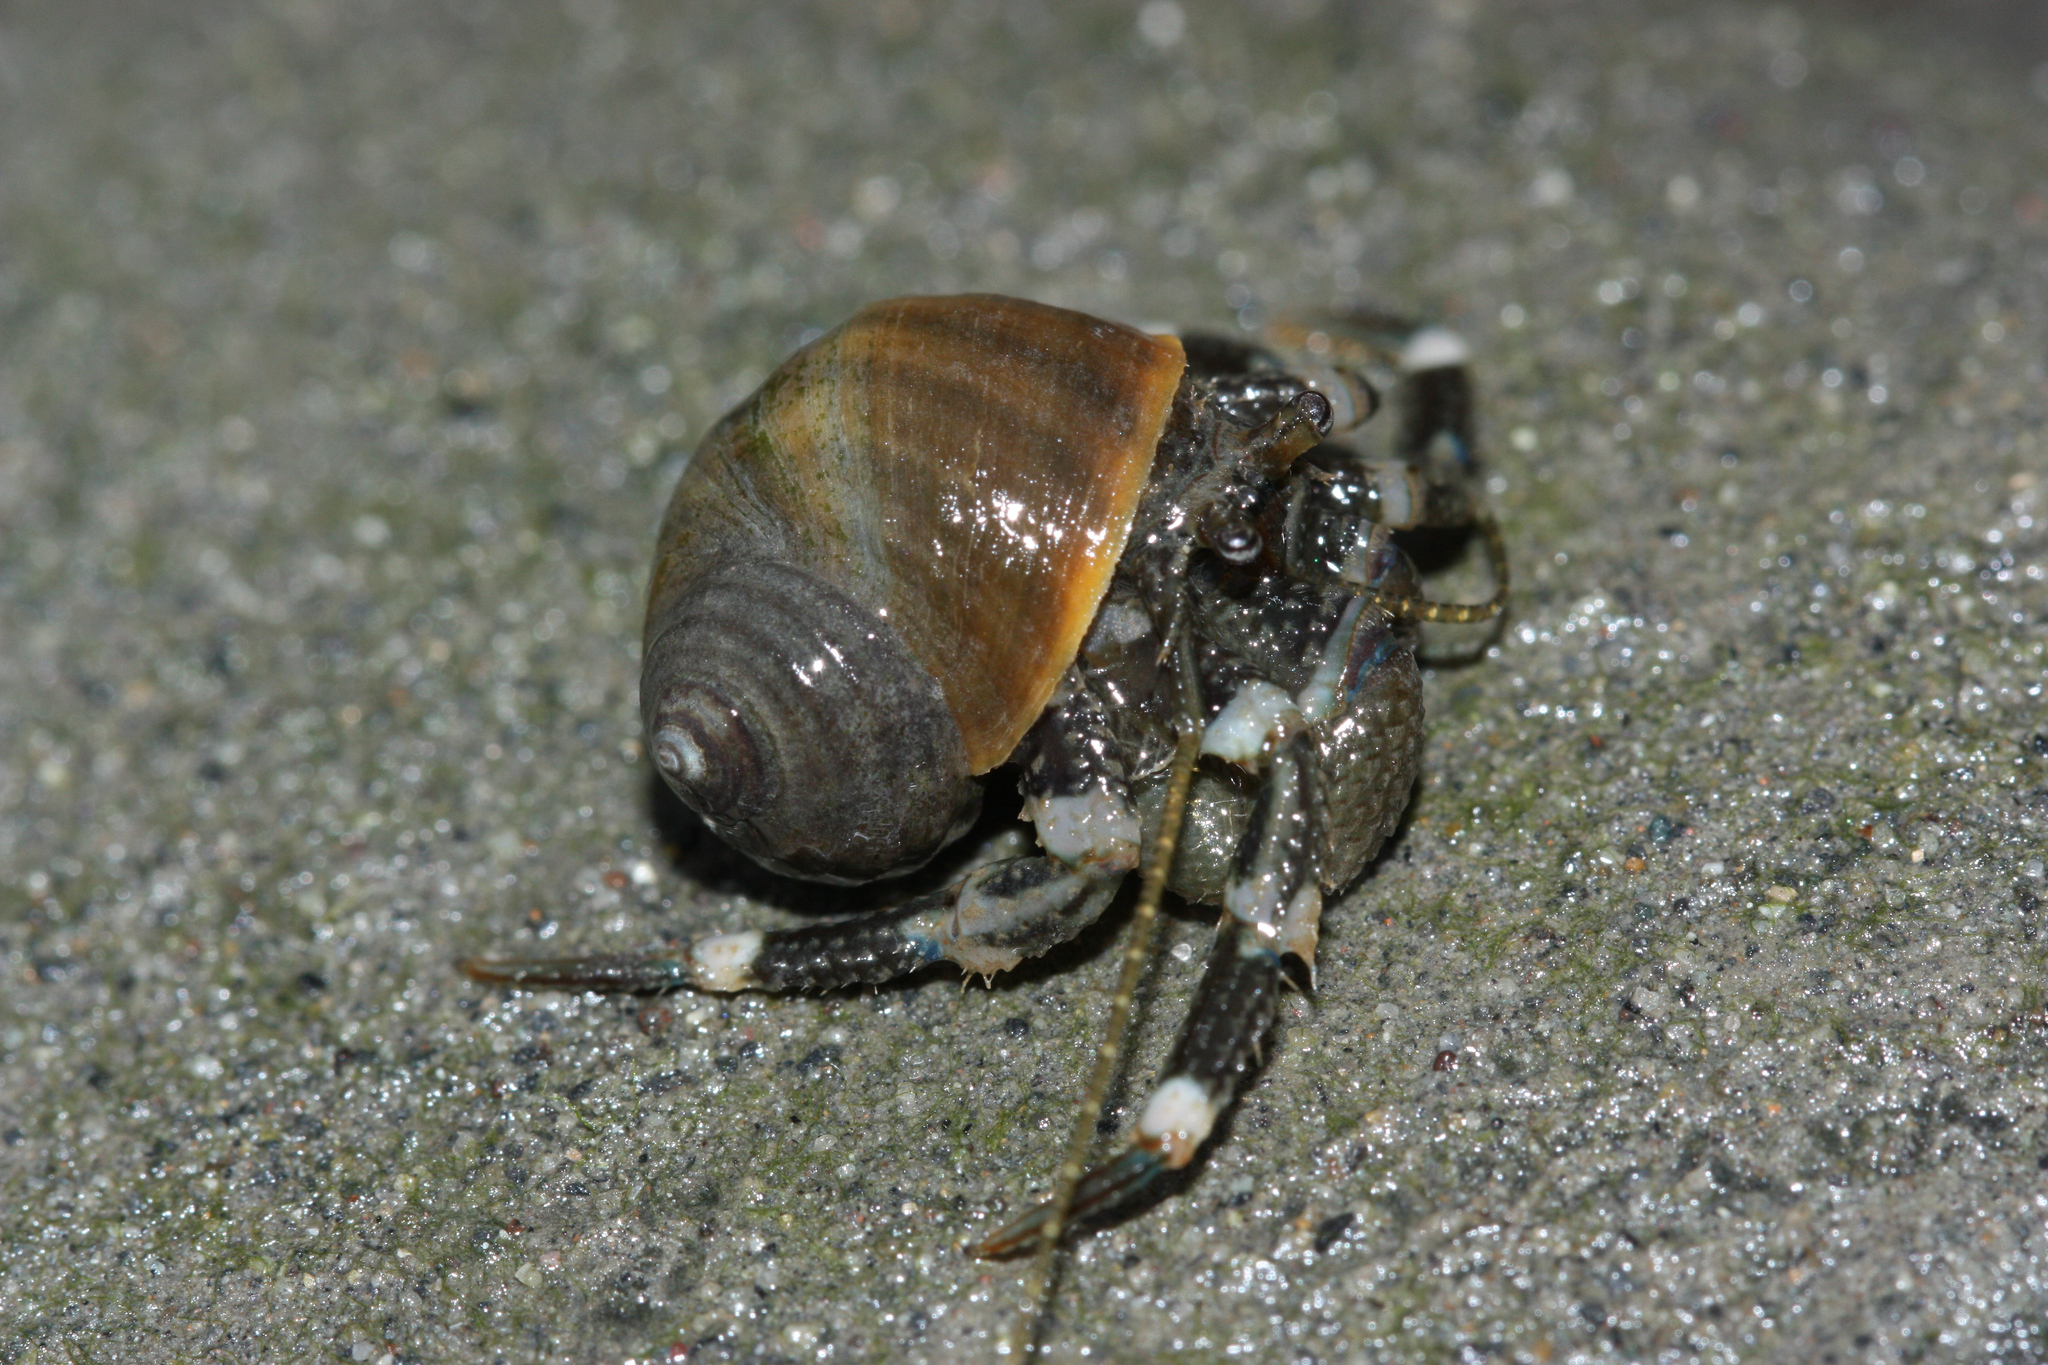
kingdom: Animalia
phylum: Arthropoda
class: Malacostraca
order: Decapoda
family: Paguridae
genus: Pagurus
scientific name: Pagurus hirsutiusculus
